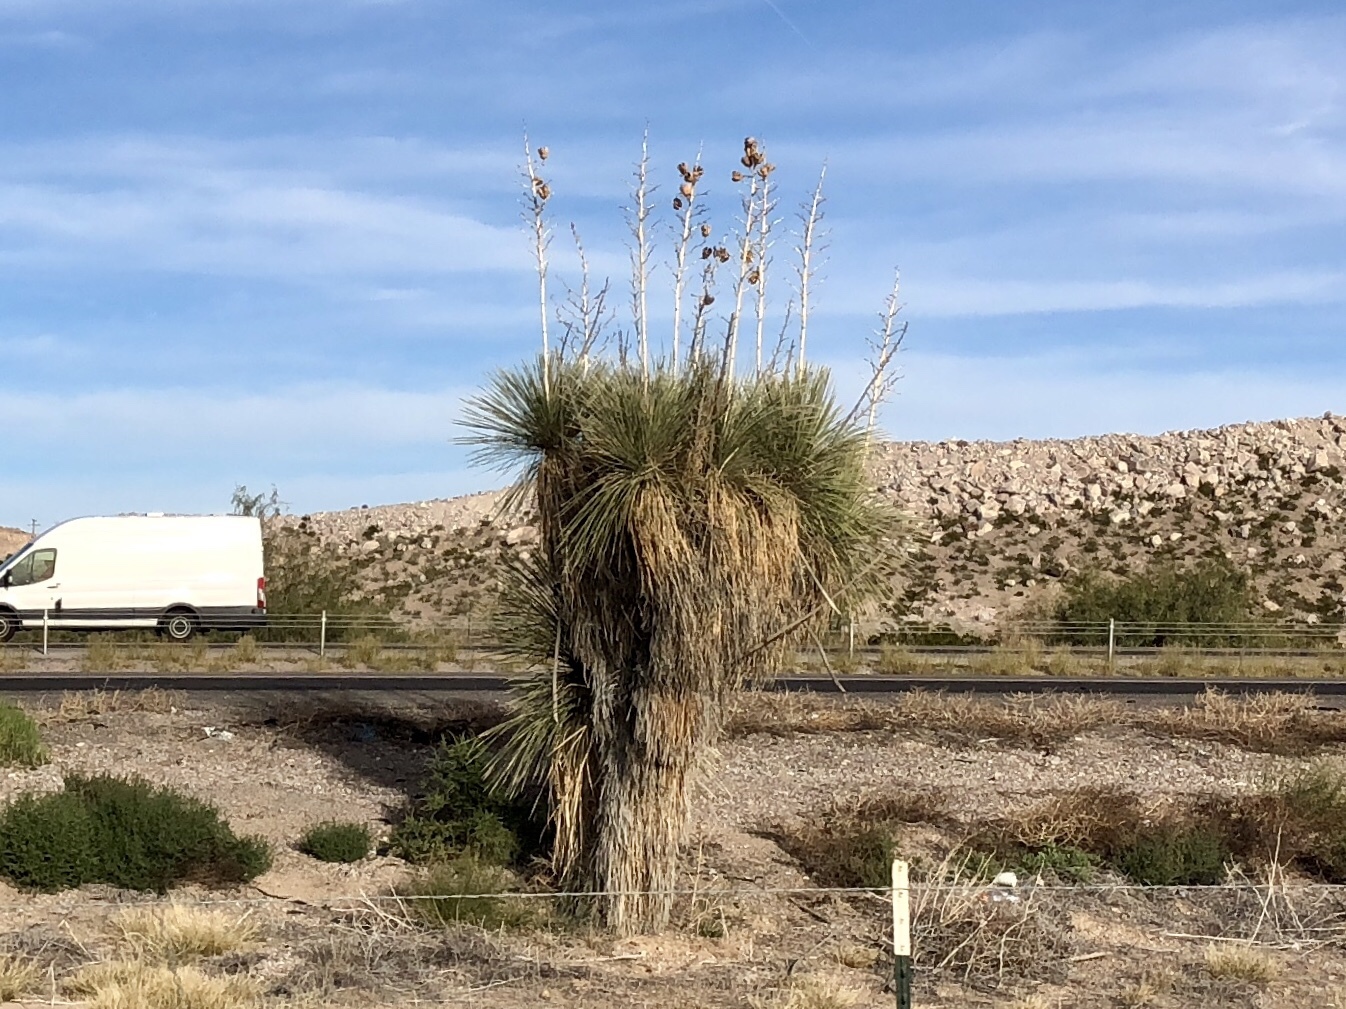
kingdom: Plantae
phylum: Tracheophyta
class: Liliopsida
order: Asparagales
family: Asparagaceae
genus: Yucca
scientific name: Yucca elata
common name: Palmella
